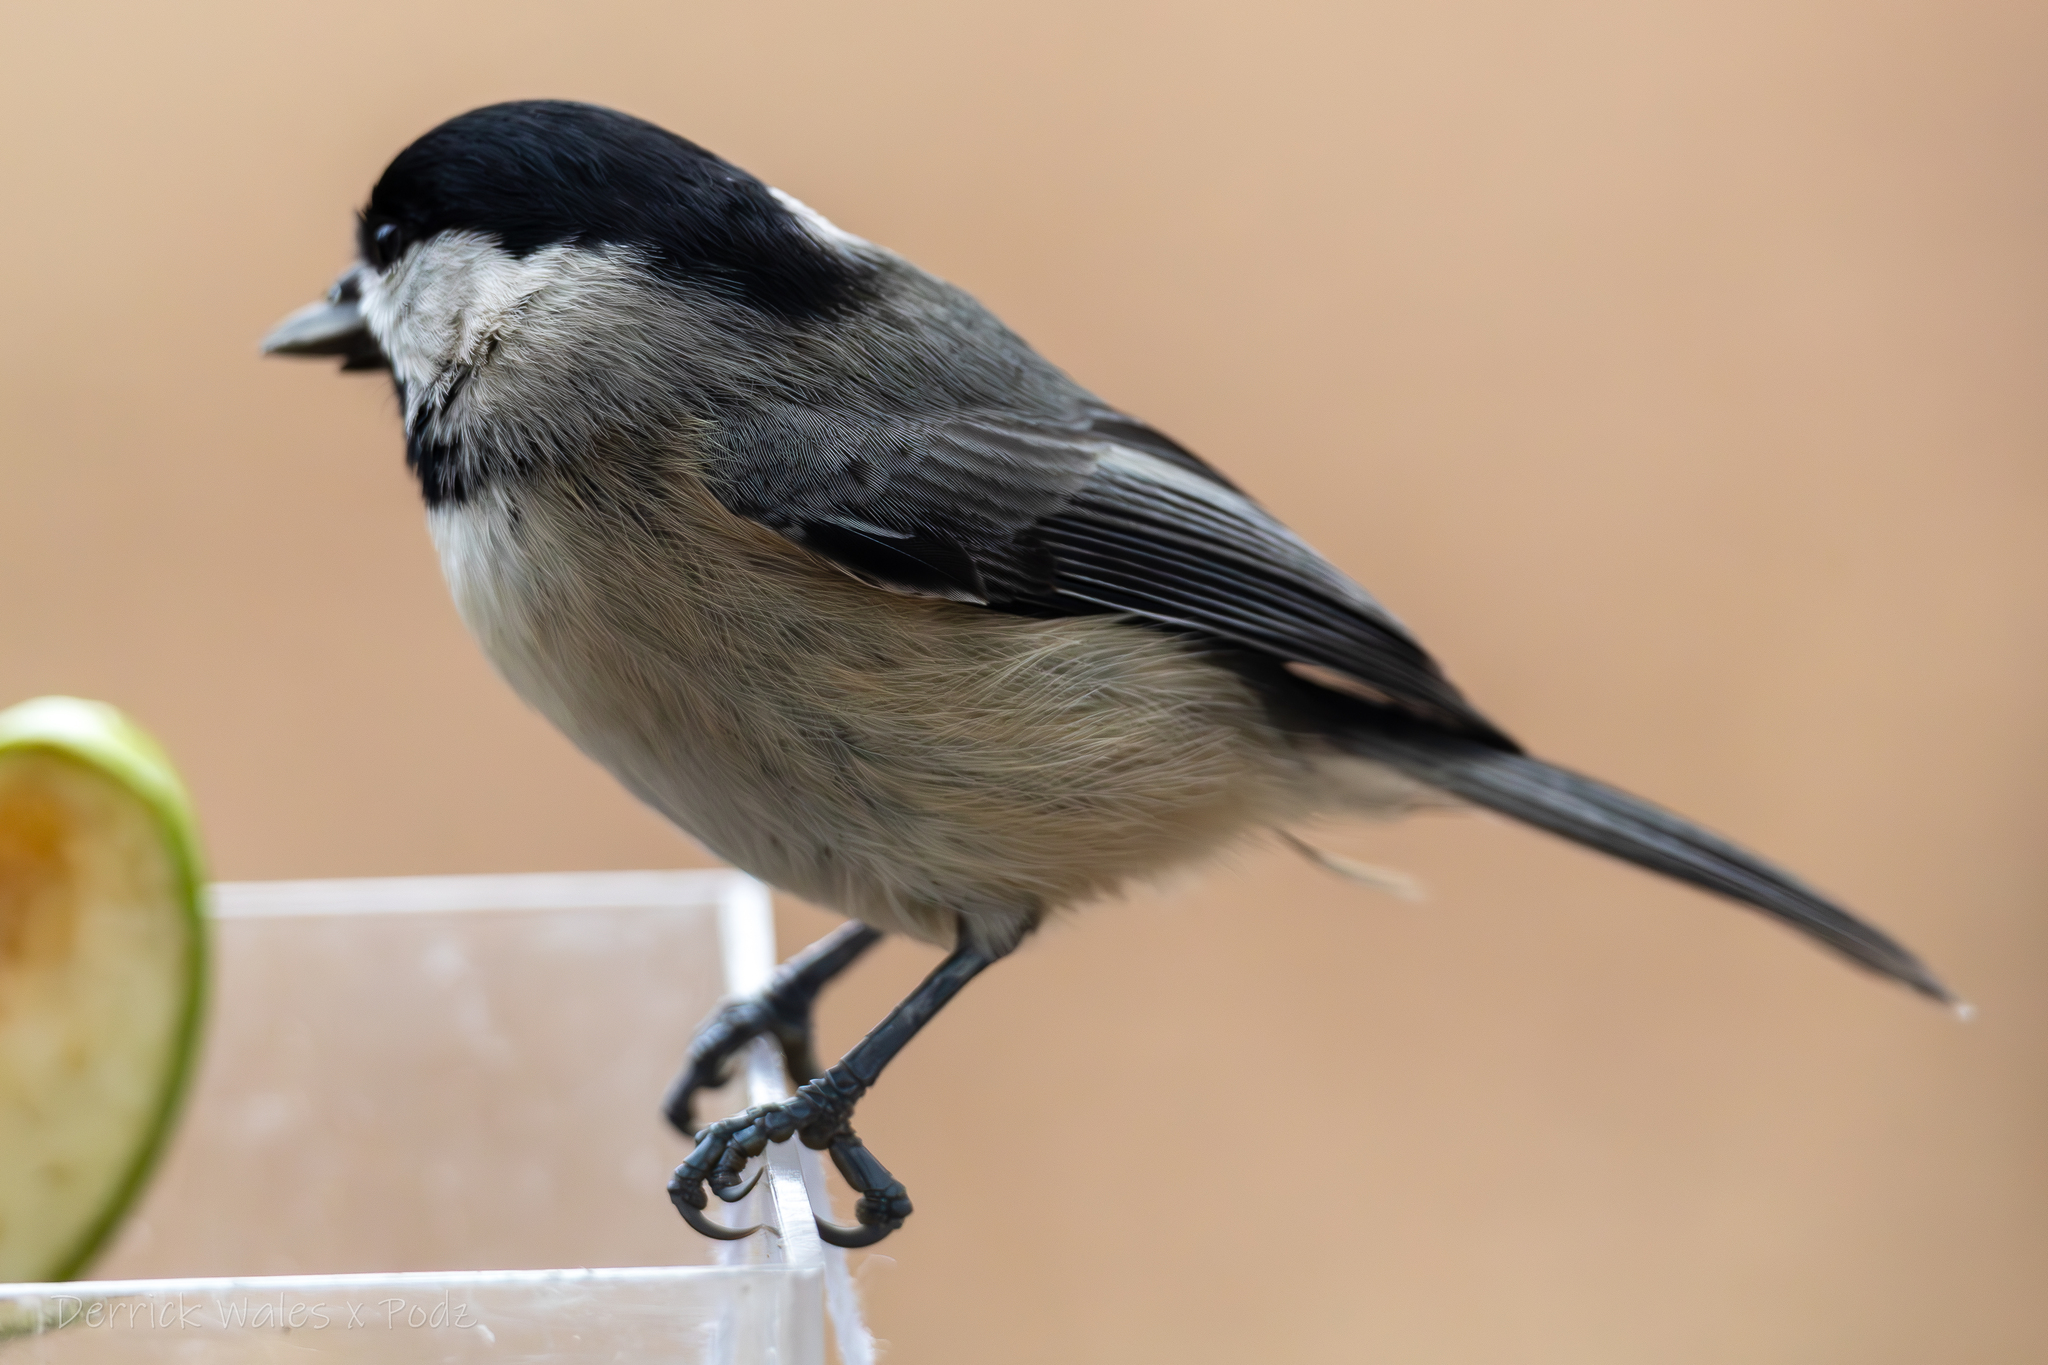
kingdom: Animalia
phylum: Chordata
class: Aves
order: Passeriformes
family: Paridae
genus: Poecile
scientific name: Poecile carolinensis
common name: Carolina chickadee
